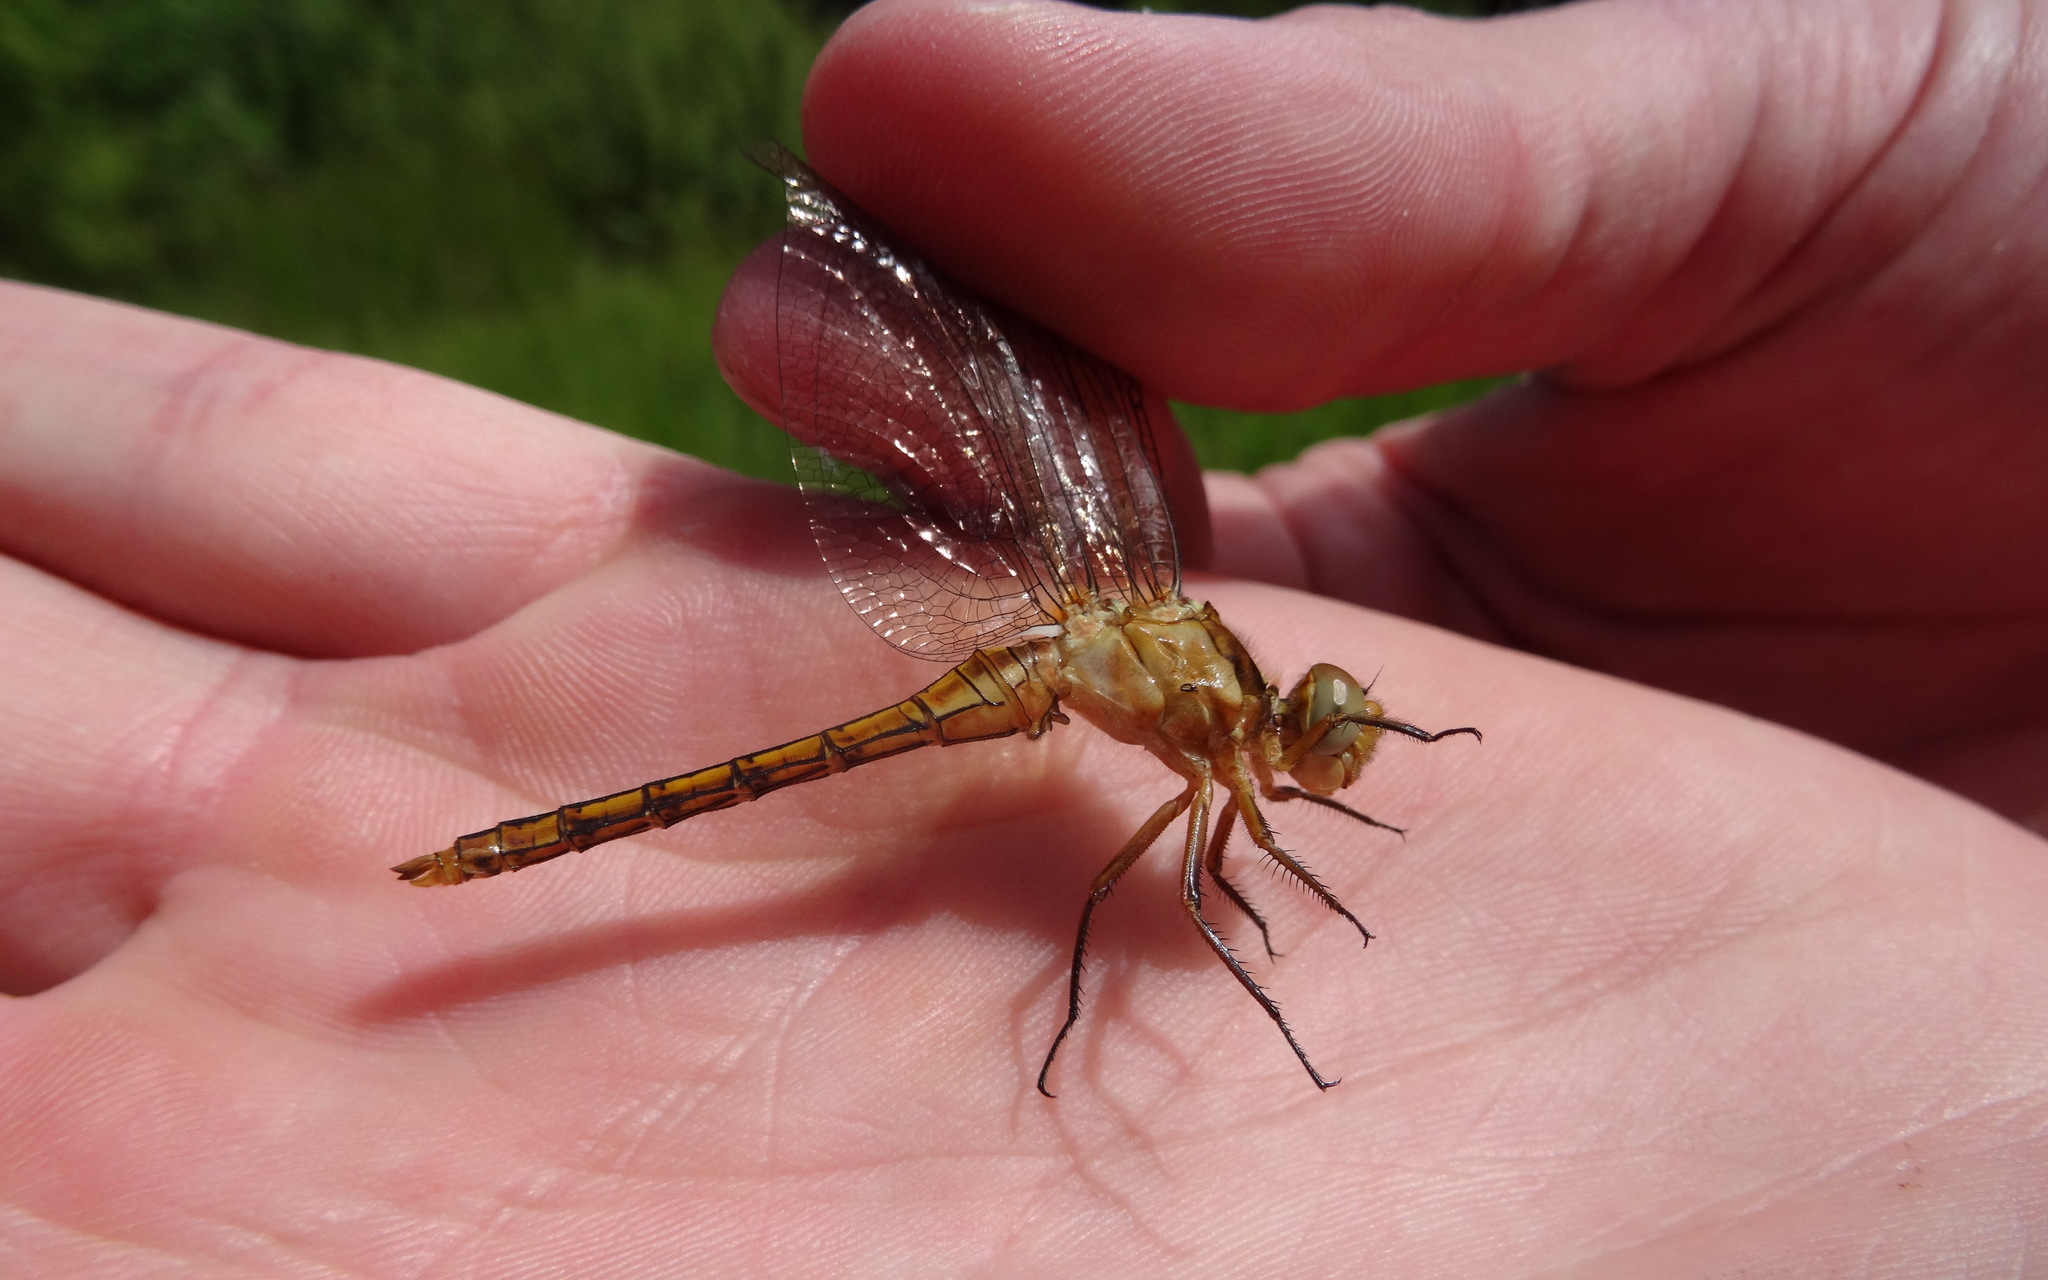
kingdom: Animalia
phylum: Arthropoda
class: Insecta
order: Odonata
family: Libellulidae
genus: Orthetrum
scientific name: Orthetrum coerulescens
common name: Keeled skimmer
